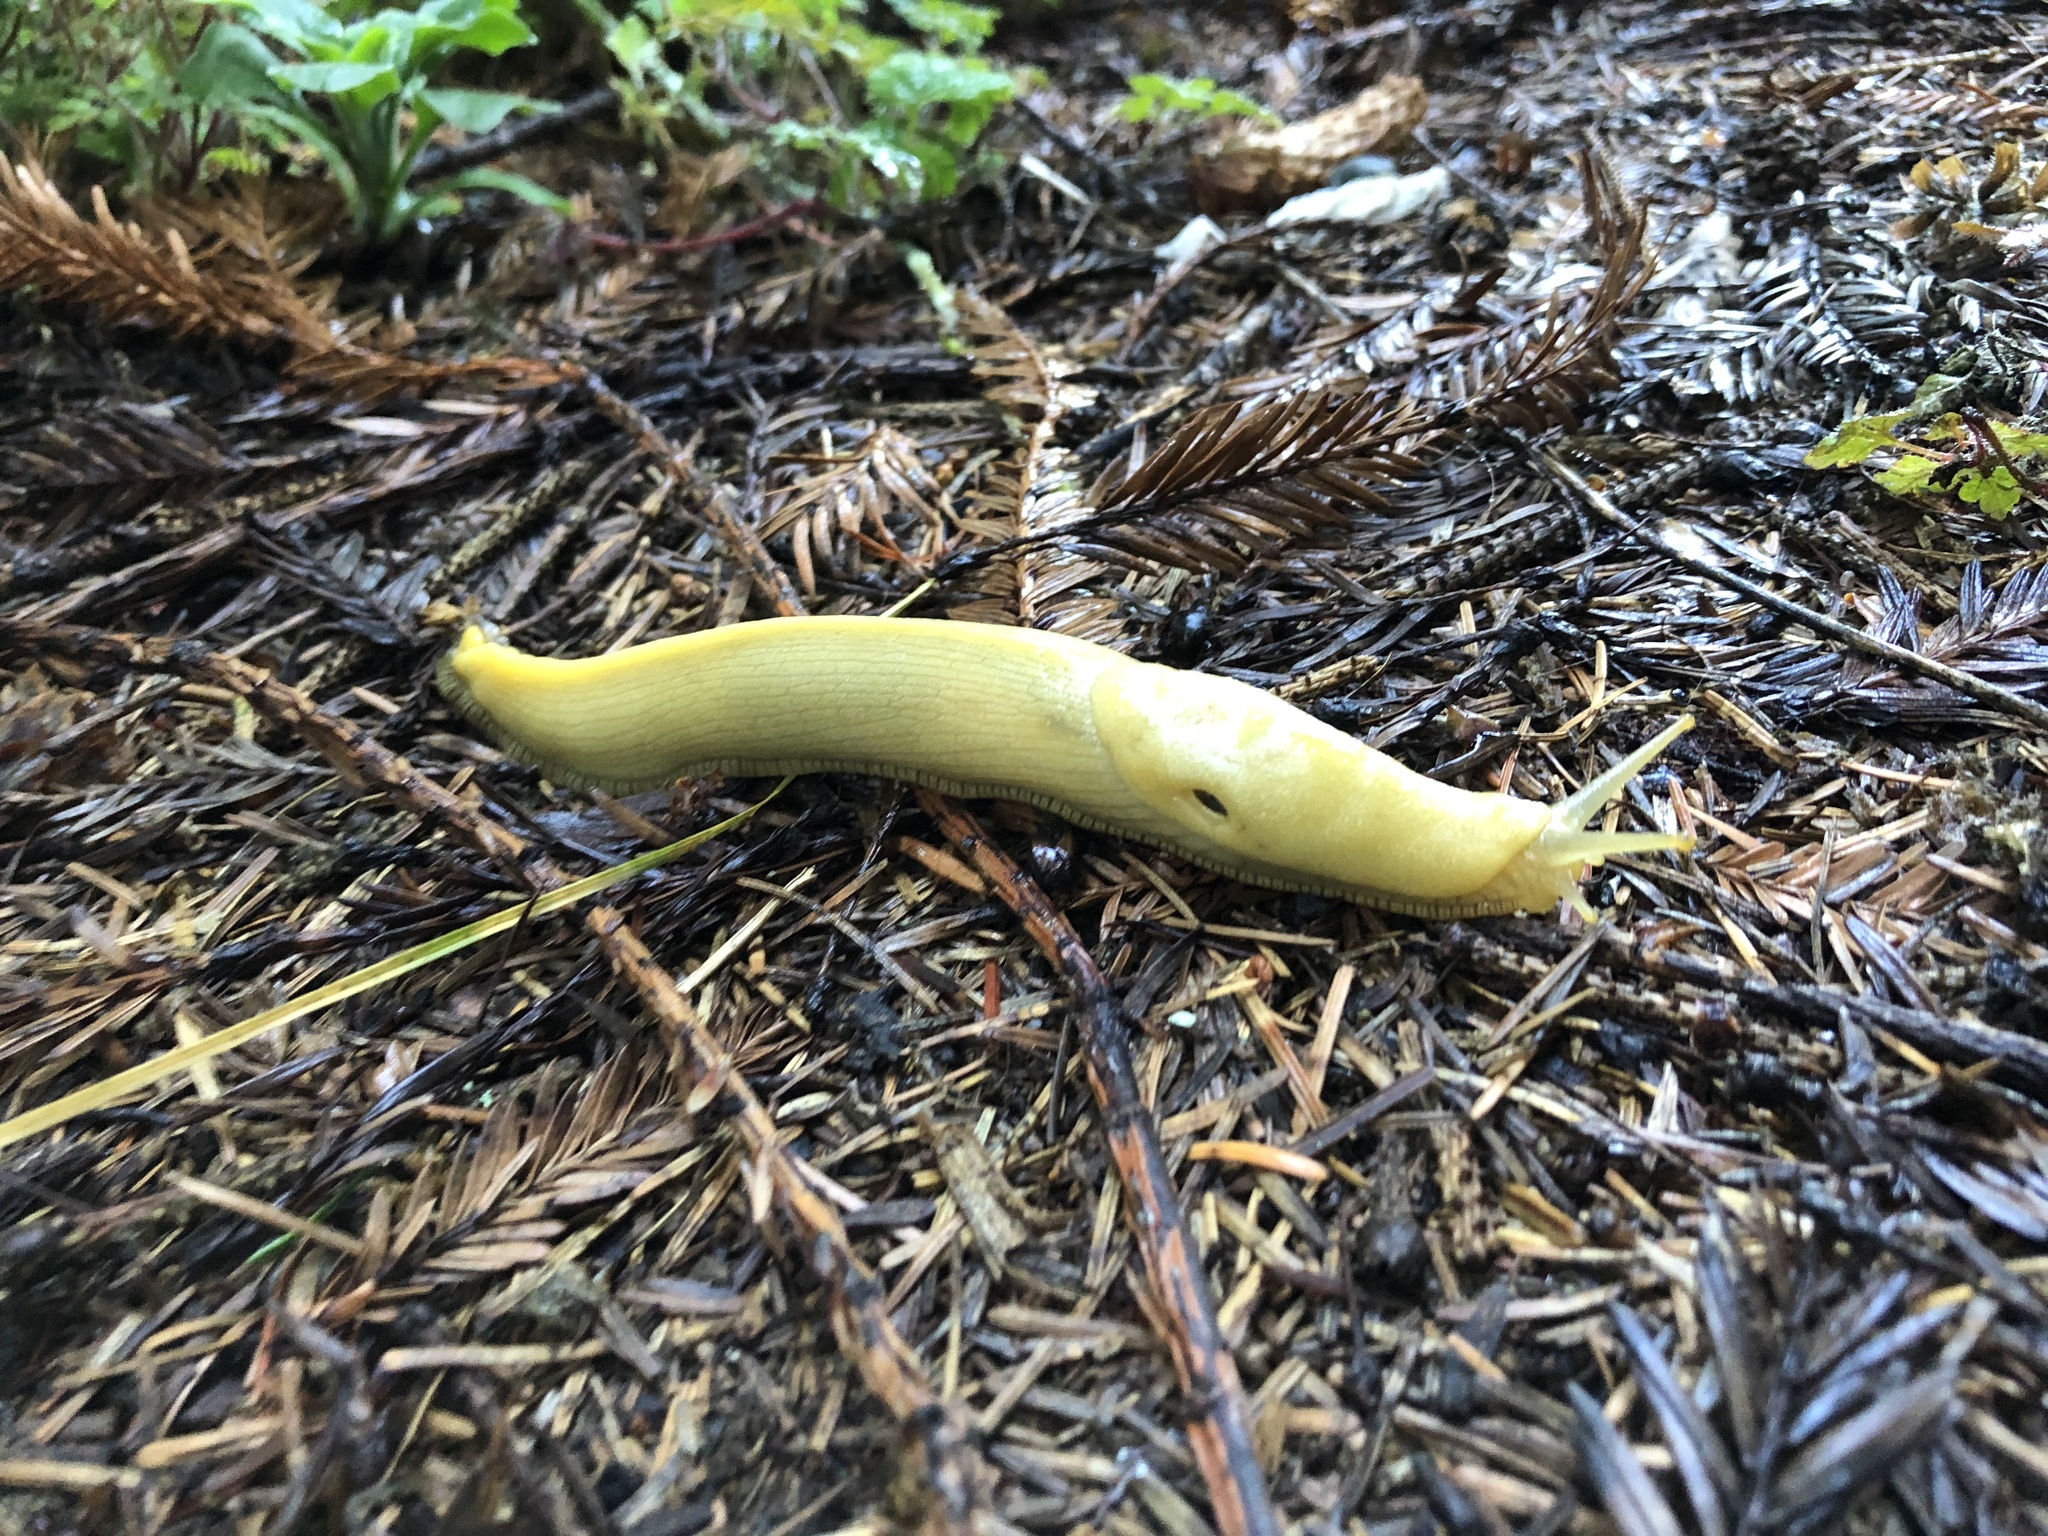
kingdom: Animalia
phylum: Mollusca
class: Gastropoda
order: Stylommatophora
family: Ariolimacidae
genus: Ariolimax
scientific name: Ariolimax columbianus
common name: Pacific banana slug
